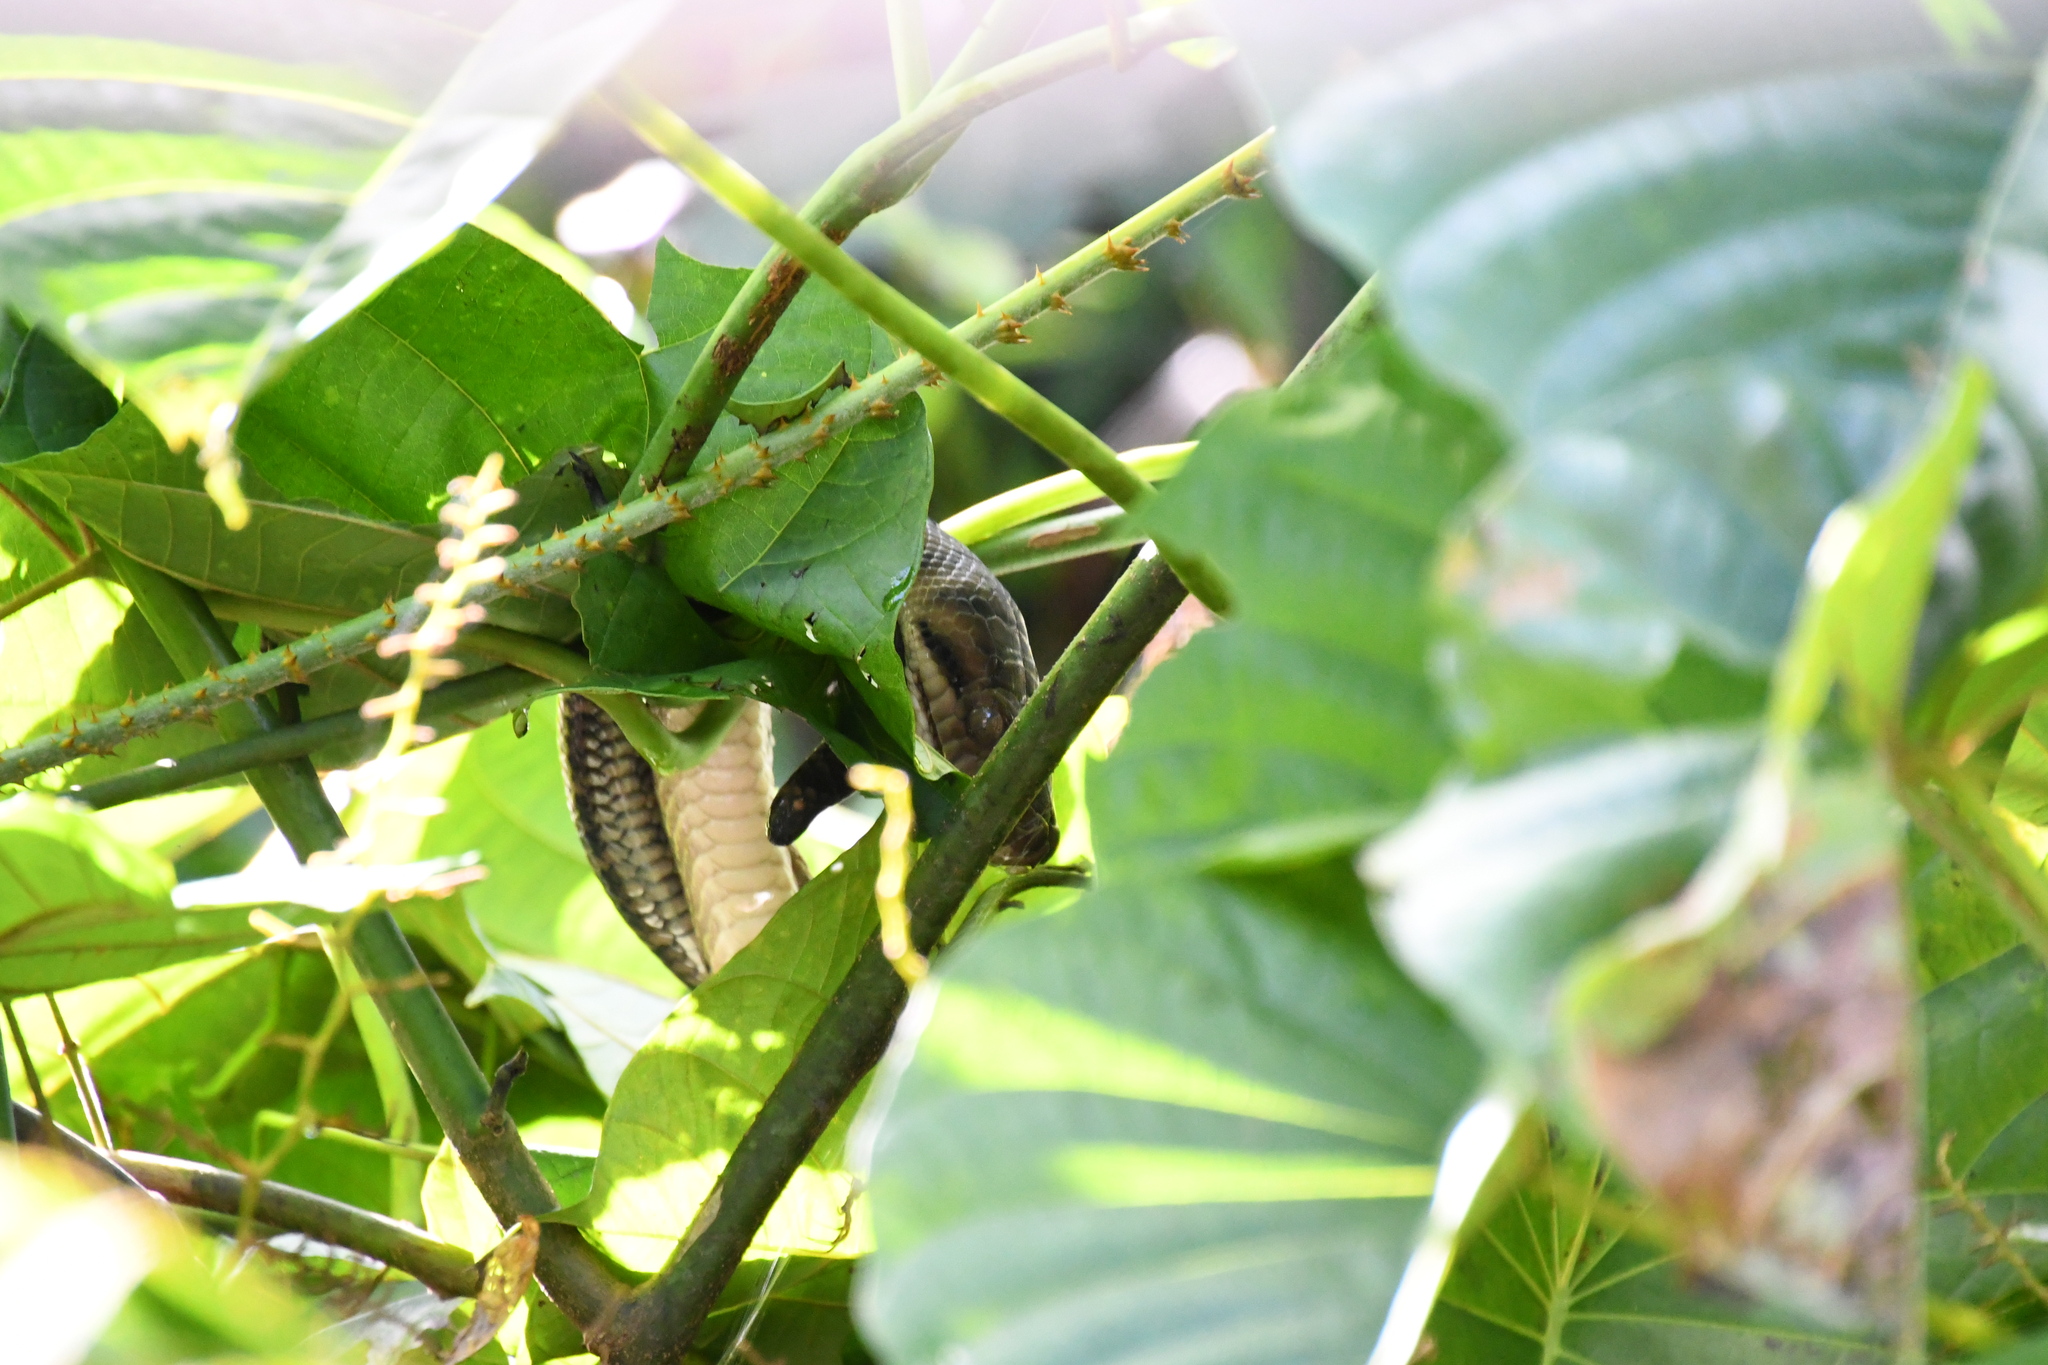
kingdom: Animalia
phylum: Chordata
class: Squamata
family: Pythonidae
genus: Simalia
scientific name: Simalia kinghorni
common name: Scrub python
